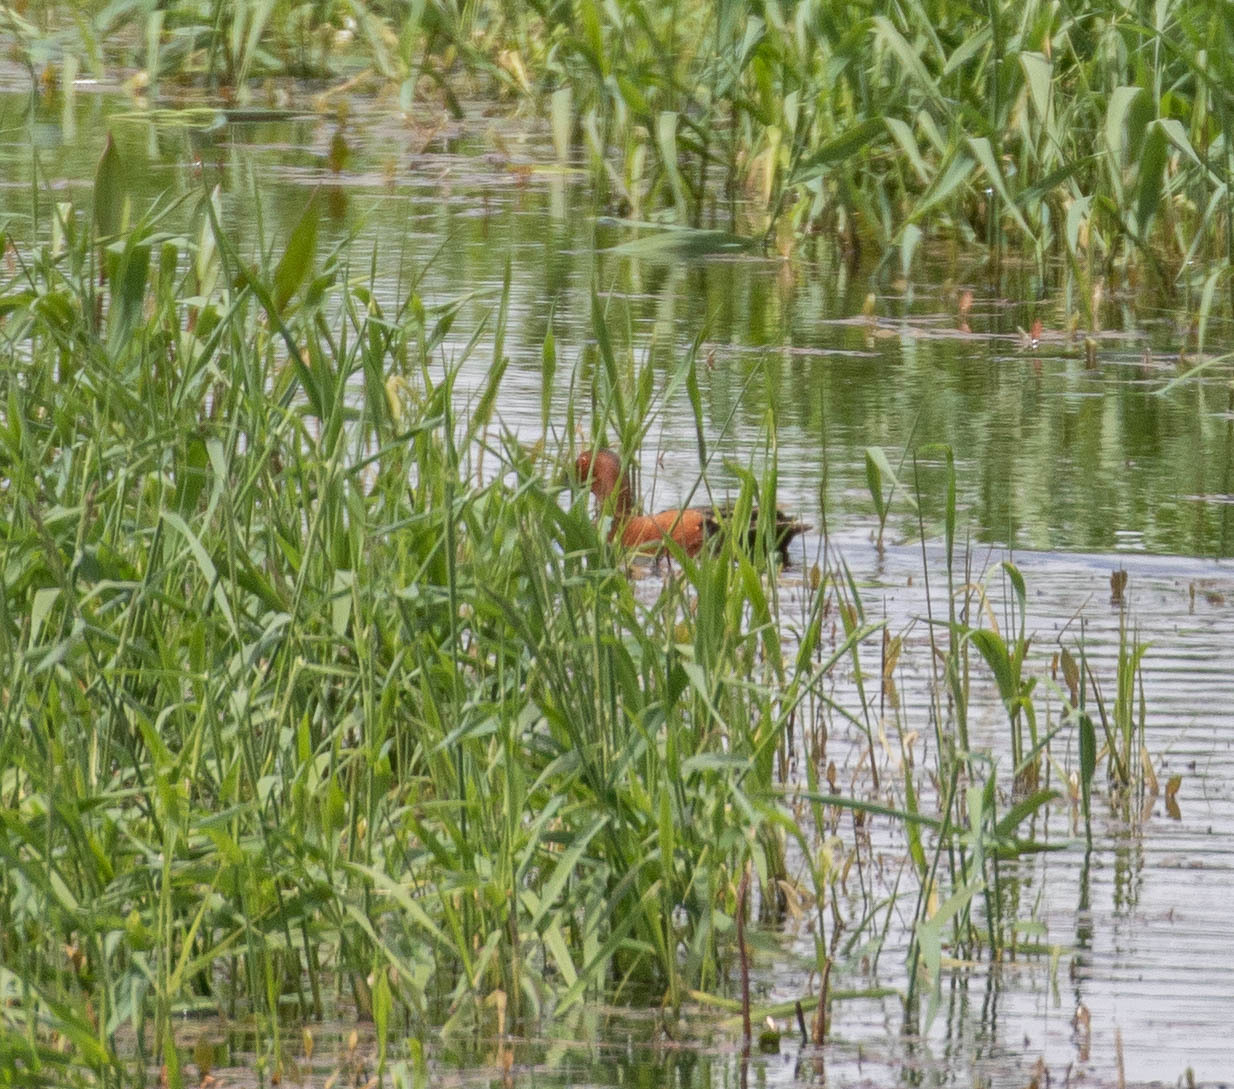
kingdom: Animalia
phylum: Chordata
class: Aves
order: Anseriformes
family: Anatidae
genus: Spatula
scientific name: Spatula cyanoptera
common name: Cinnamon teal
